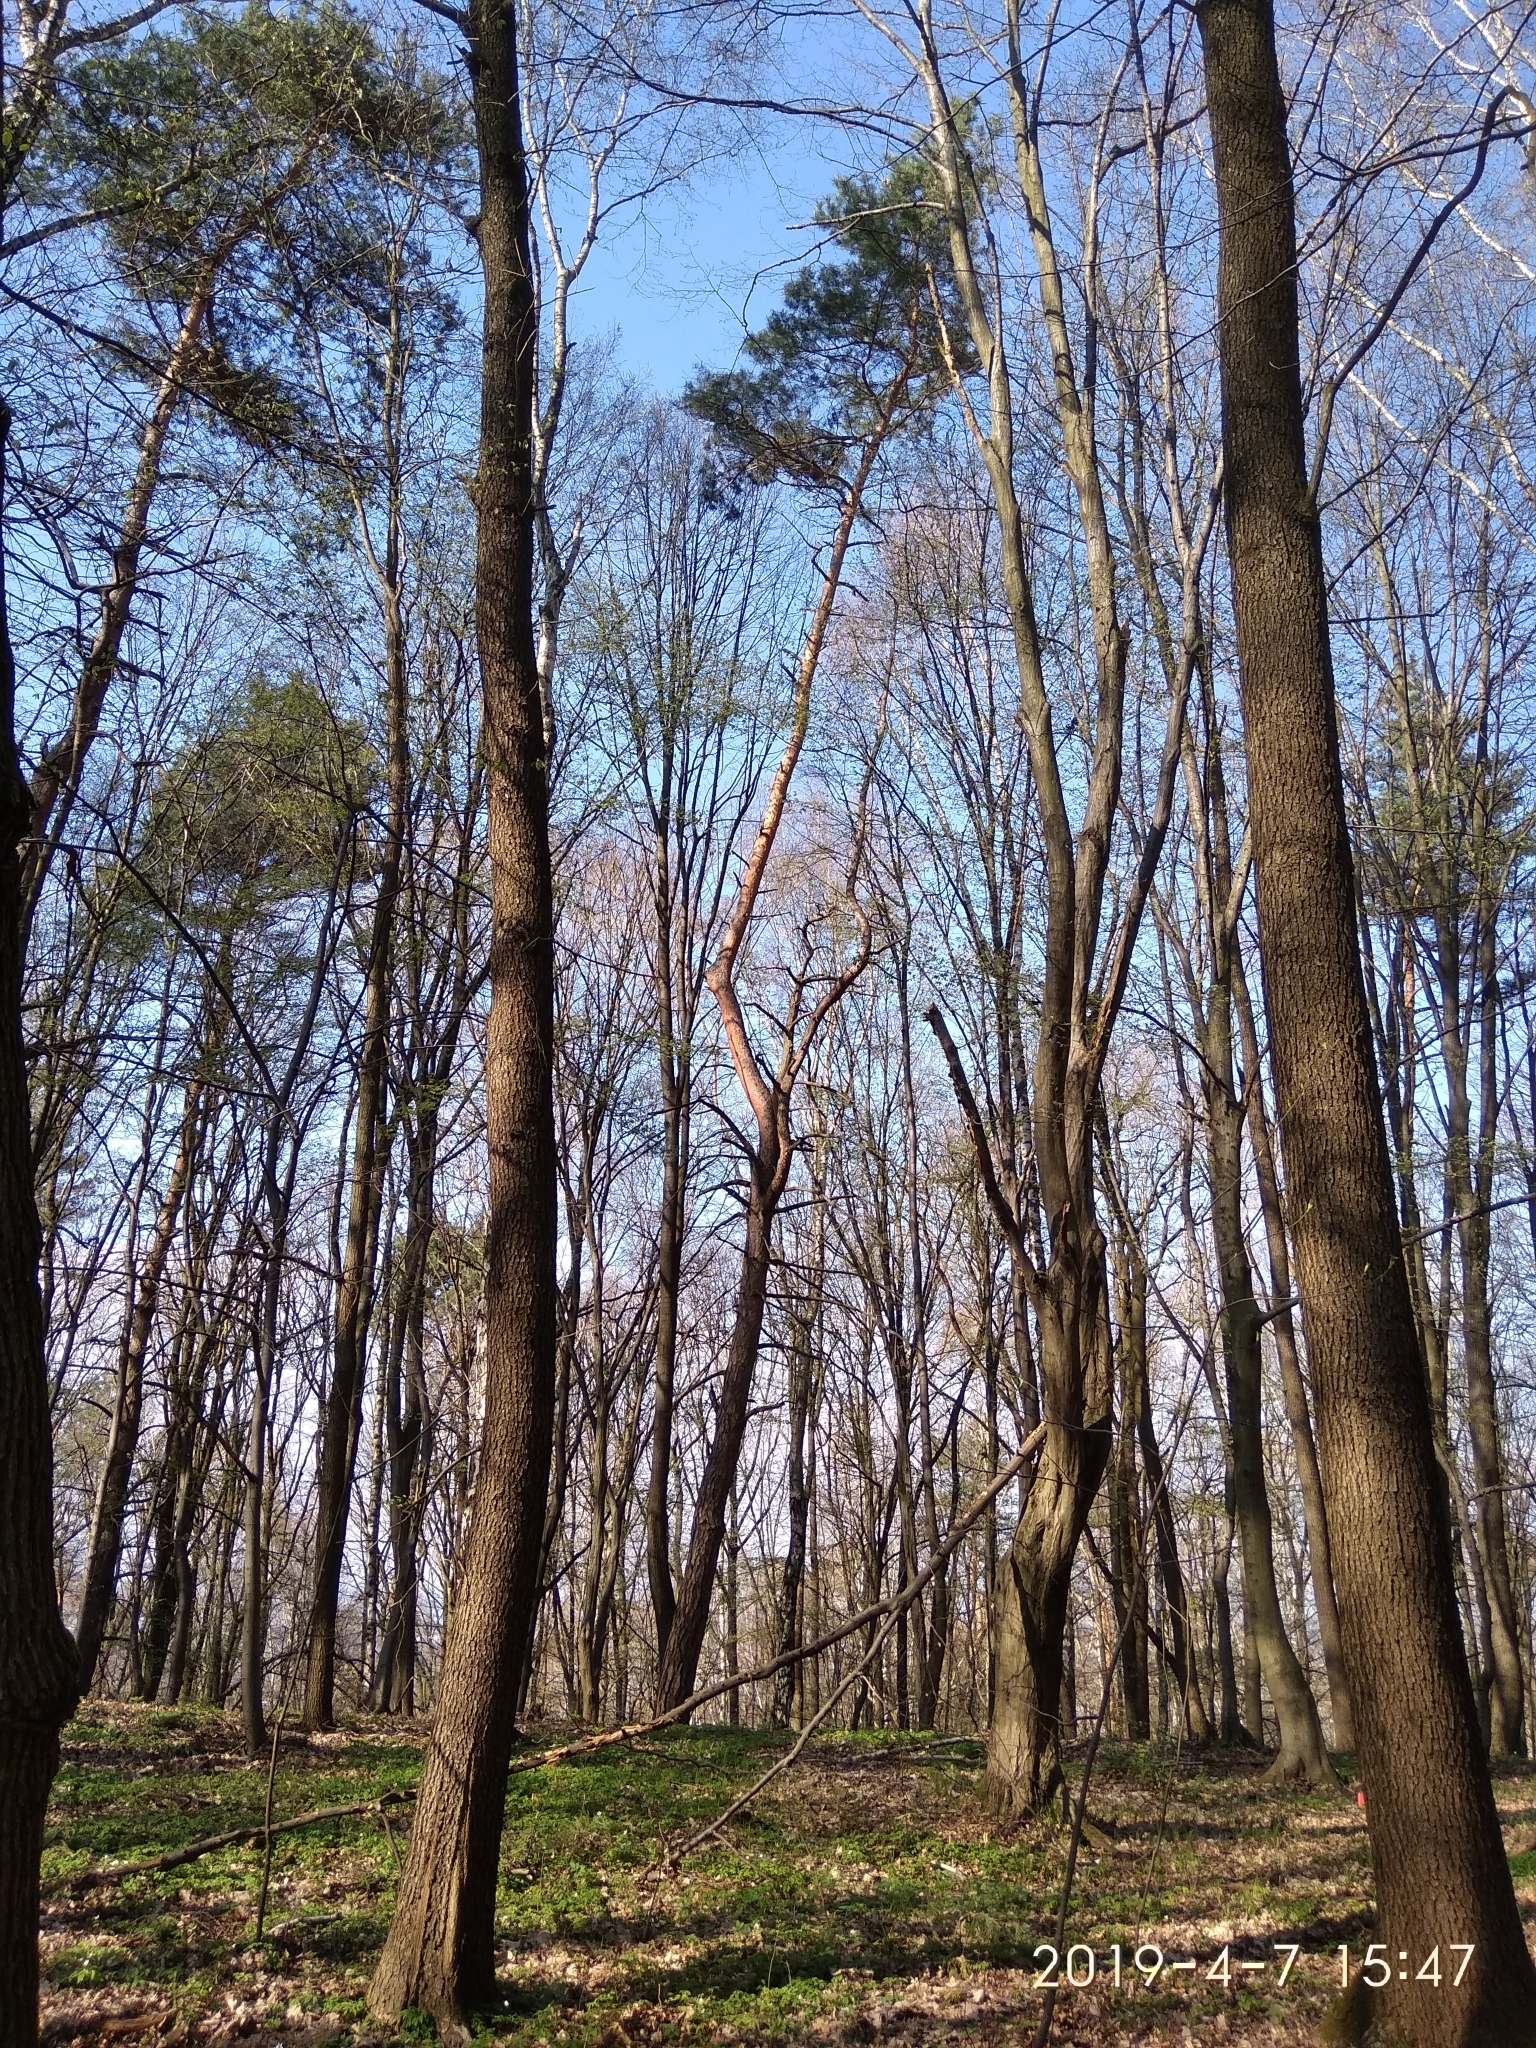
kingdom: Plantae
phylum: Tracheophyta
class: Pinopsida
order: Pinales
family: Pinaceae
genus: Pinus
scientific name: Pinus sylvestris
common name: Scots pine
